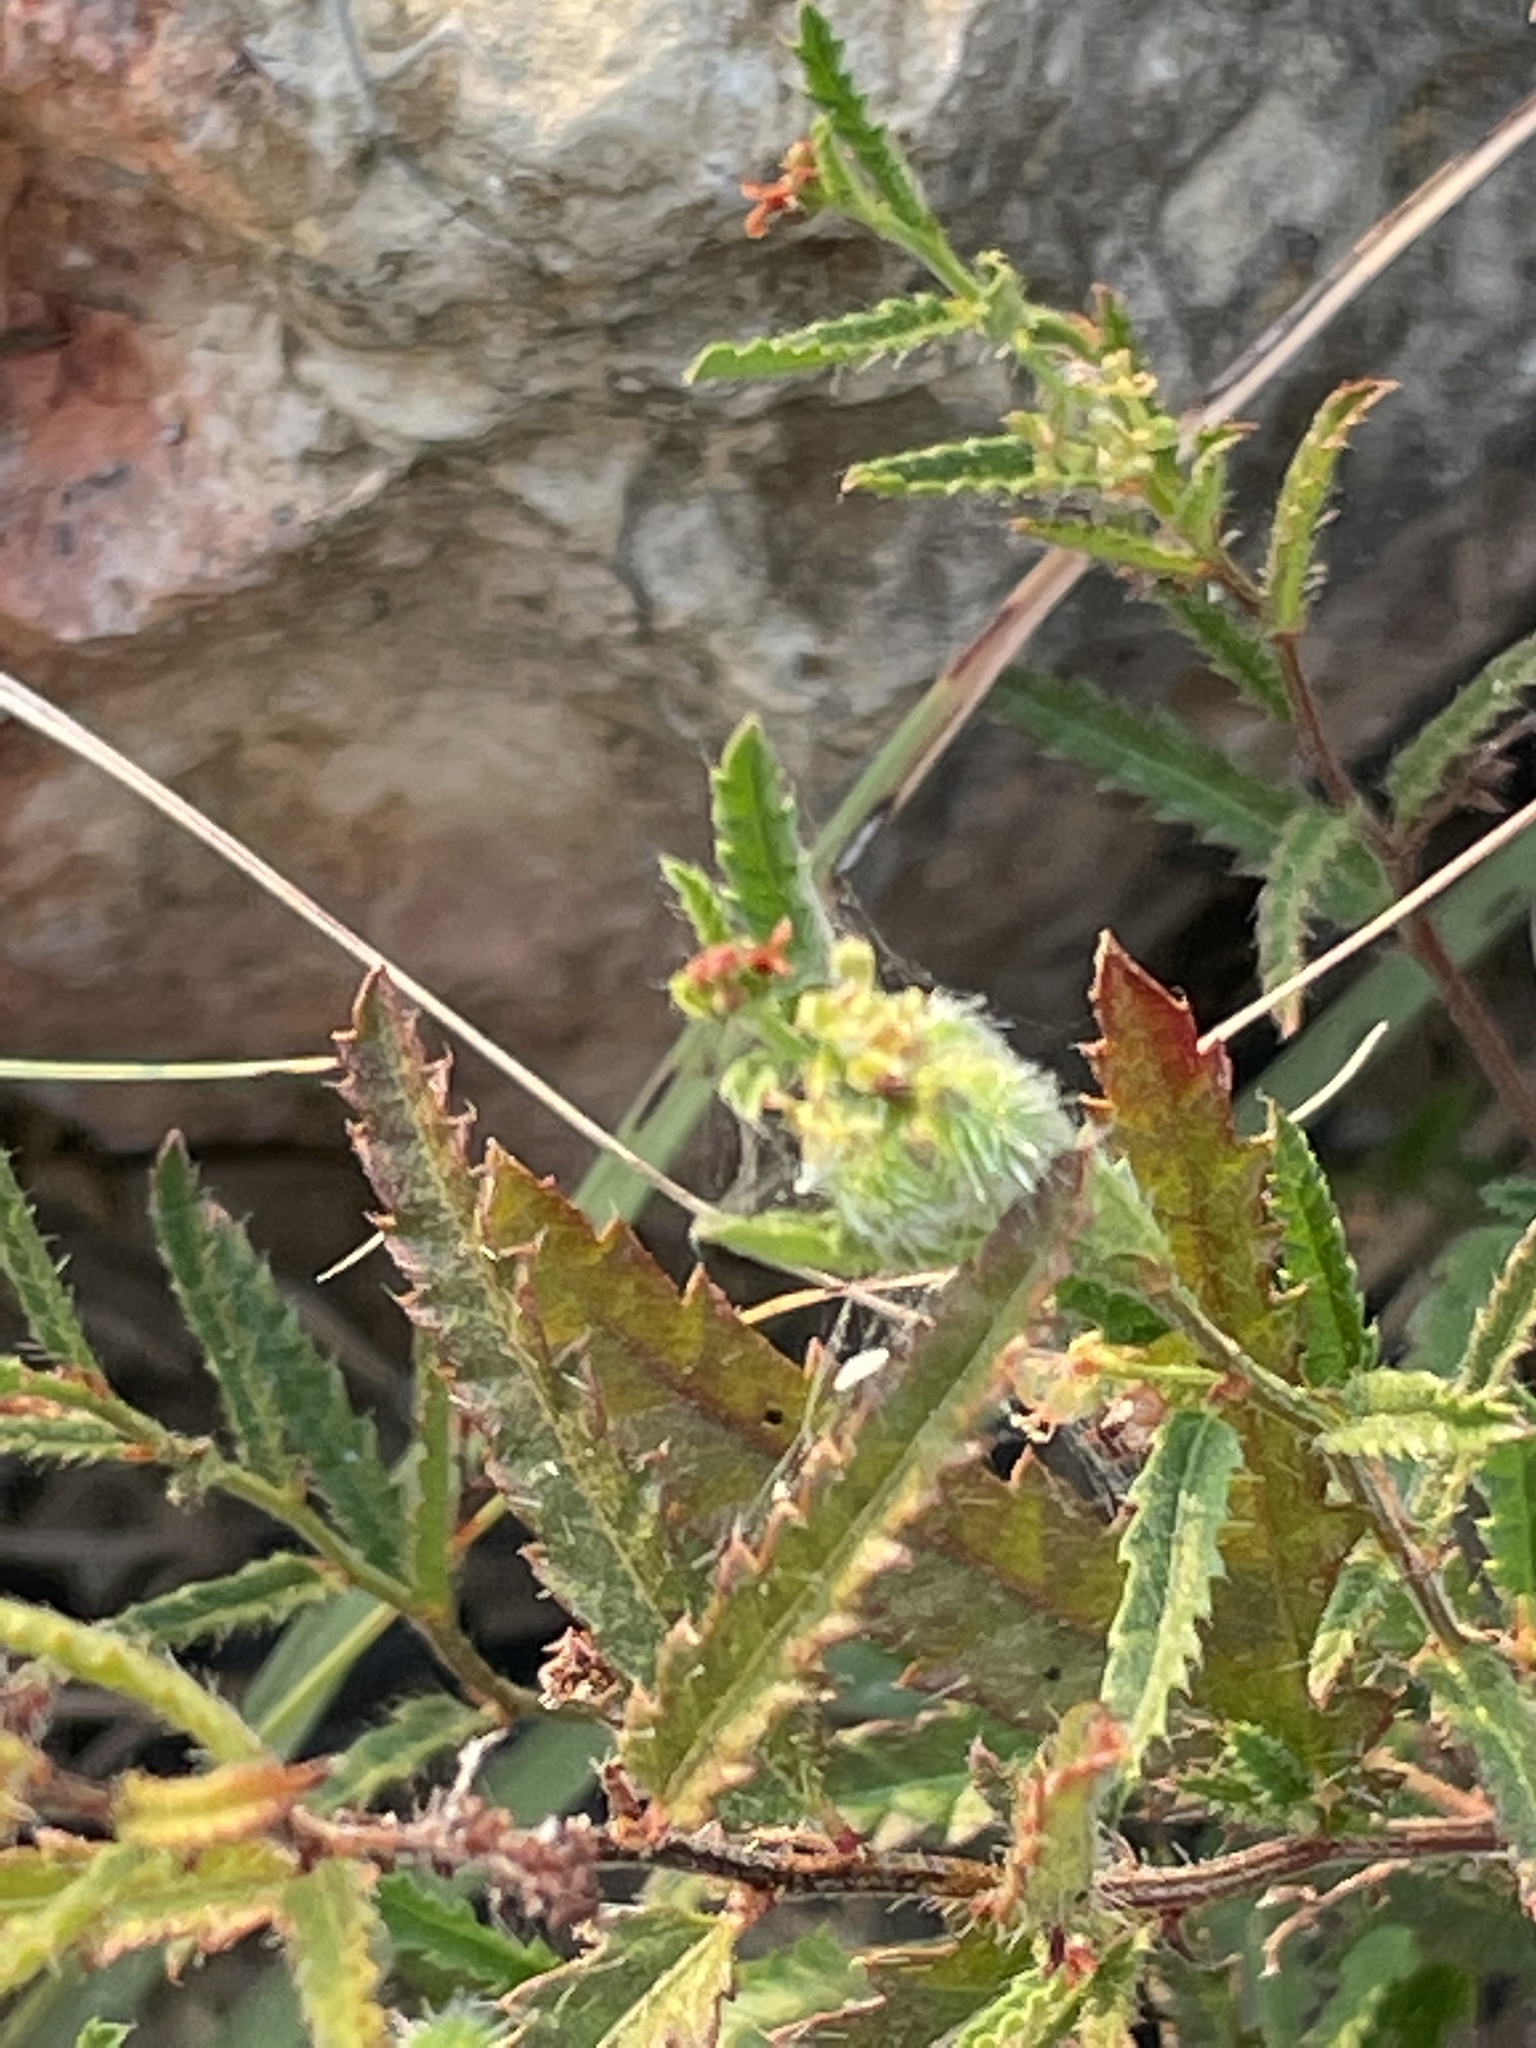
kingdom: Plantae
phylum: Tracheophyta
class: Magnoliopsida
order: Malpighiales
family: Euphorbiaceae
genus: Tragia
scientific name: Tragia ramosa
